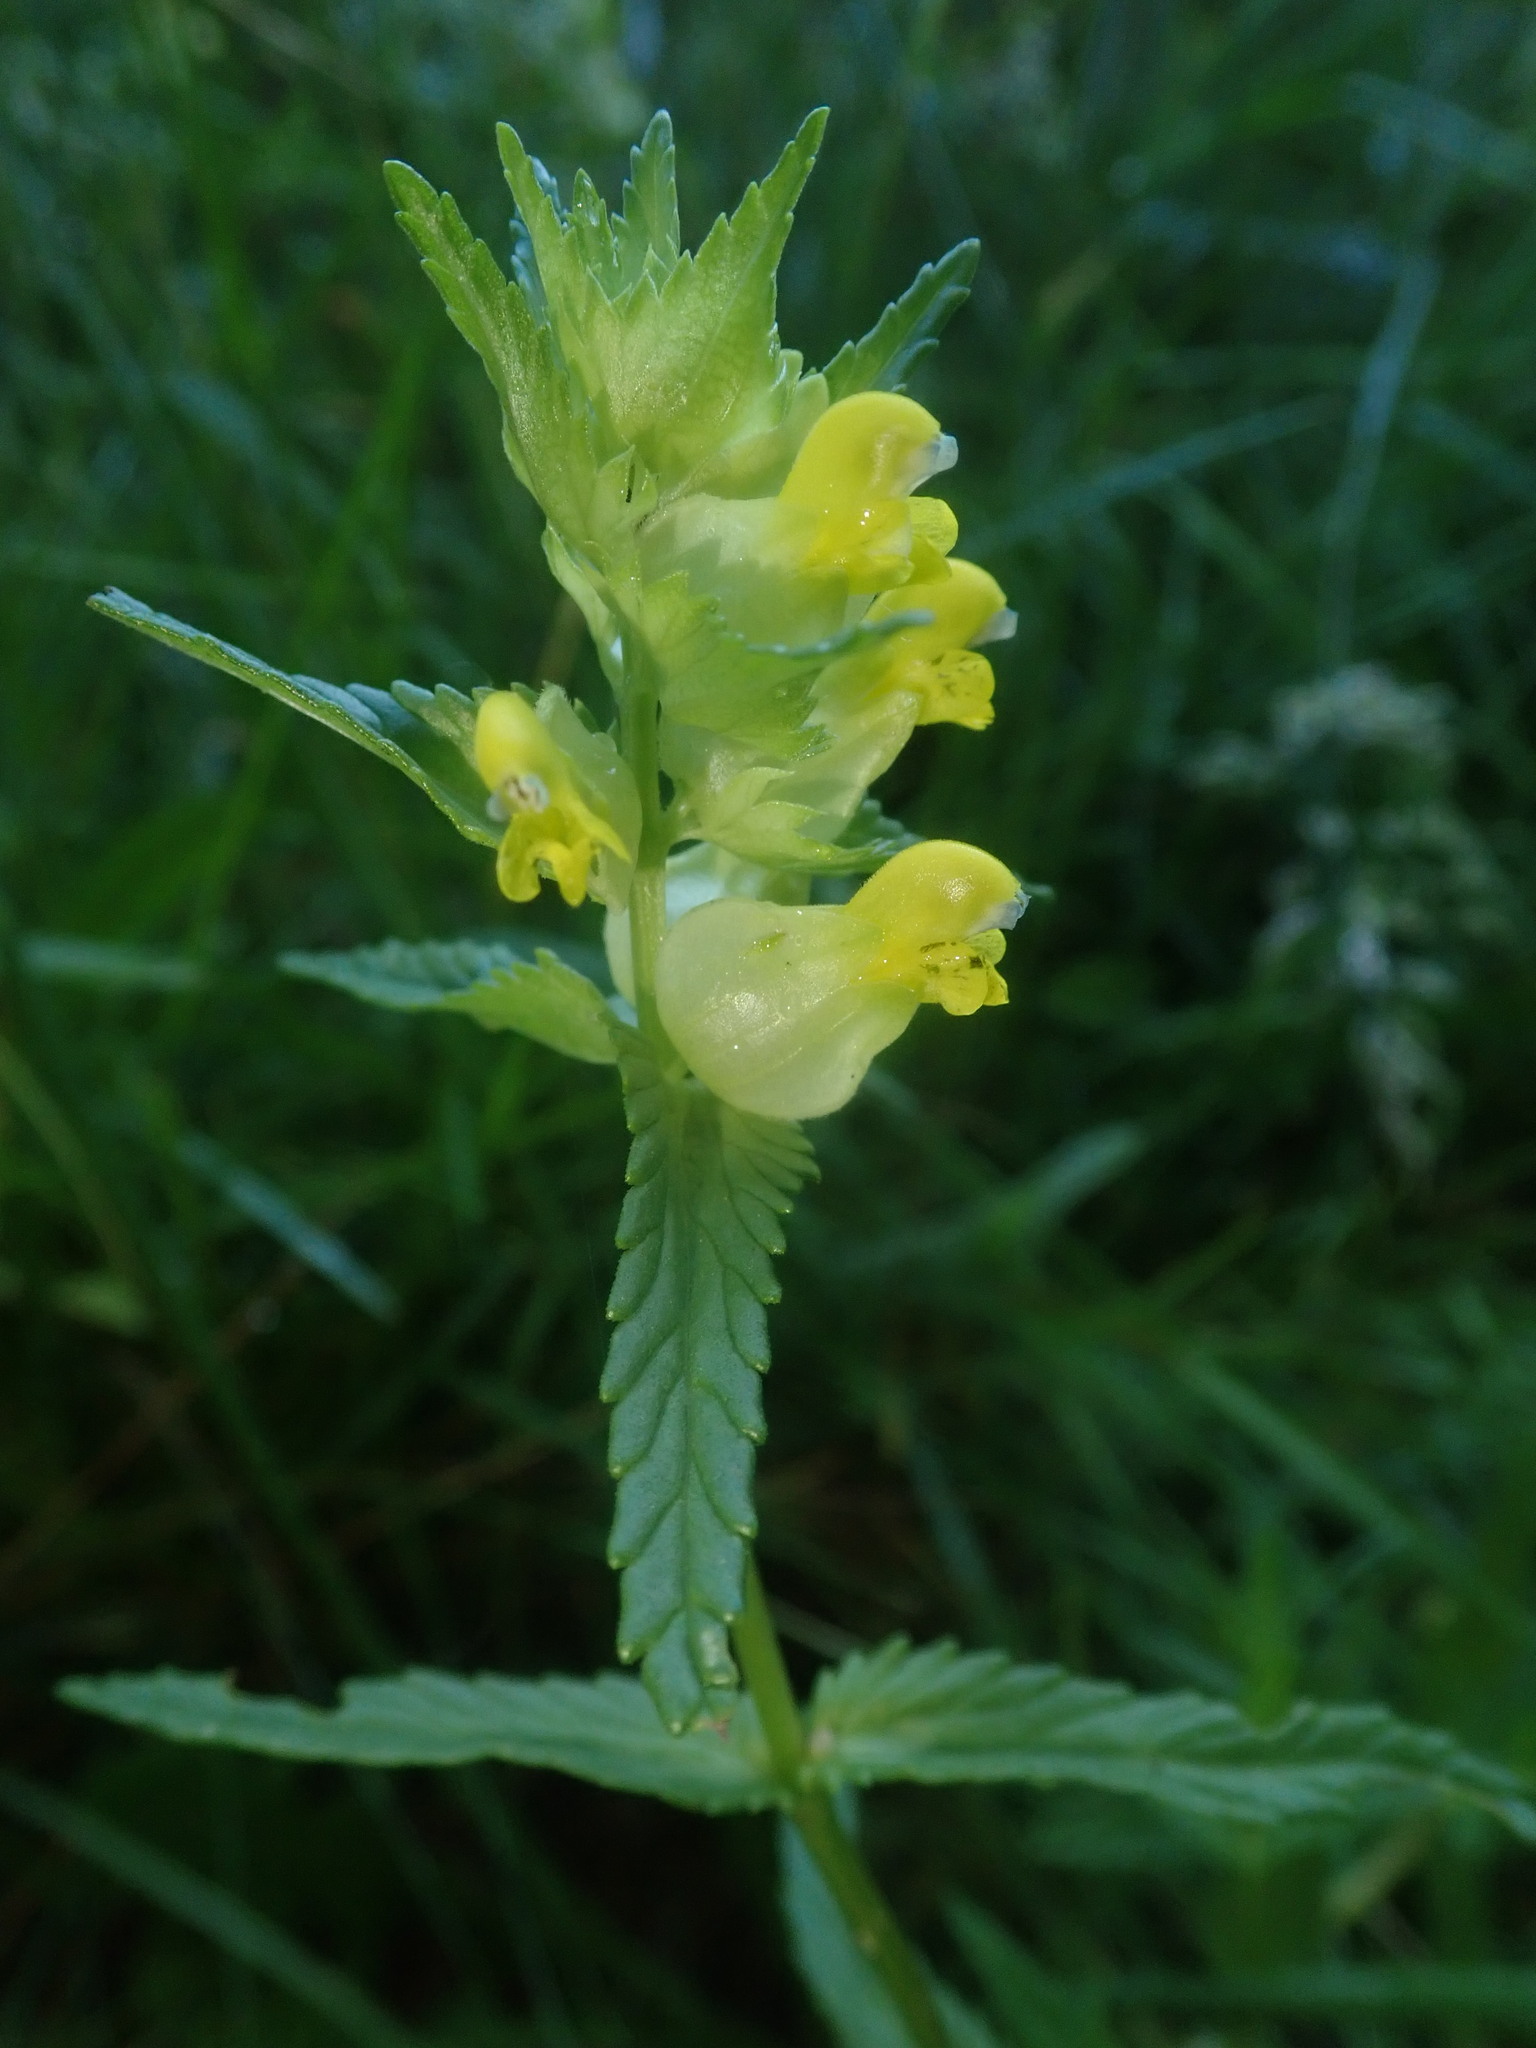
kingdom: Plantae
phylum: Tracheophyta
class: Magnoliopsida
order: Lamiales
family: Orobanchaceae
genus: Rhinanthus
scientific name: Rhinanthus minor
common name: Yellow-rattle
